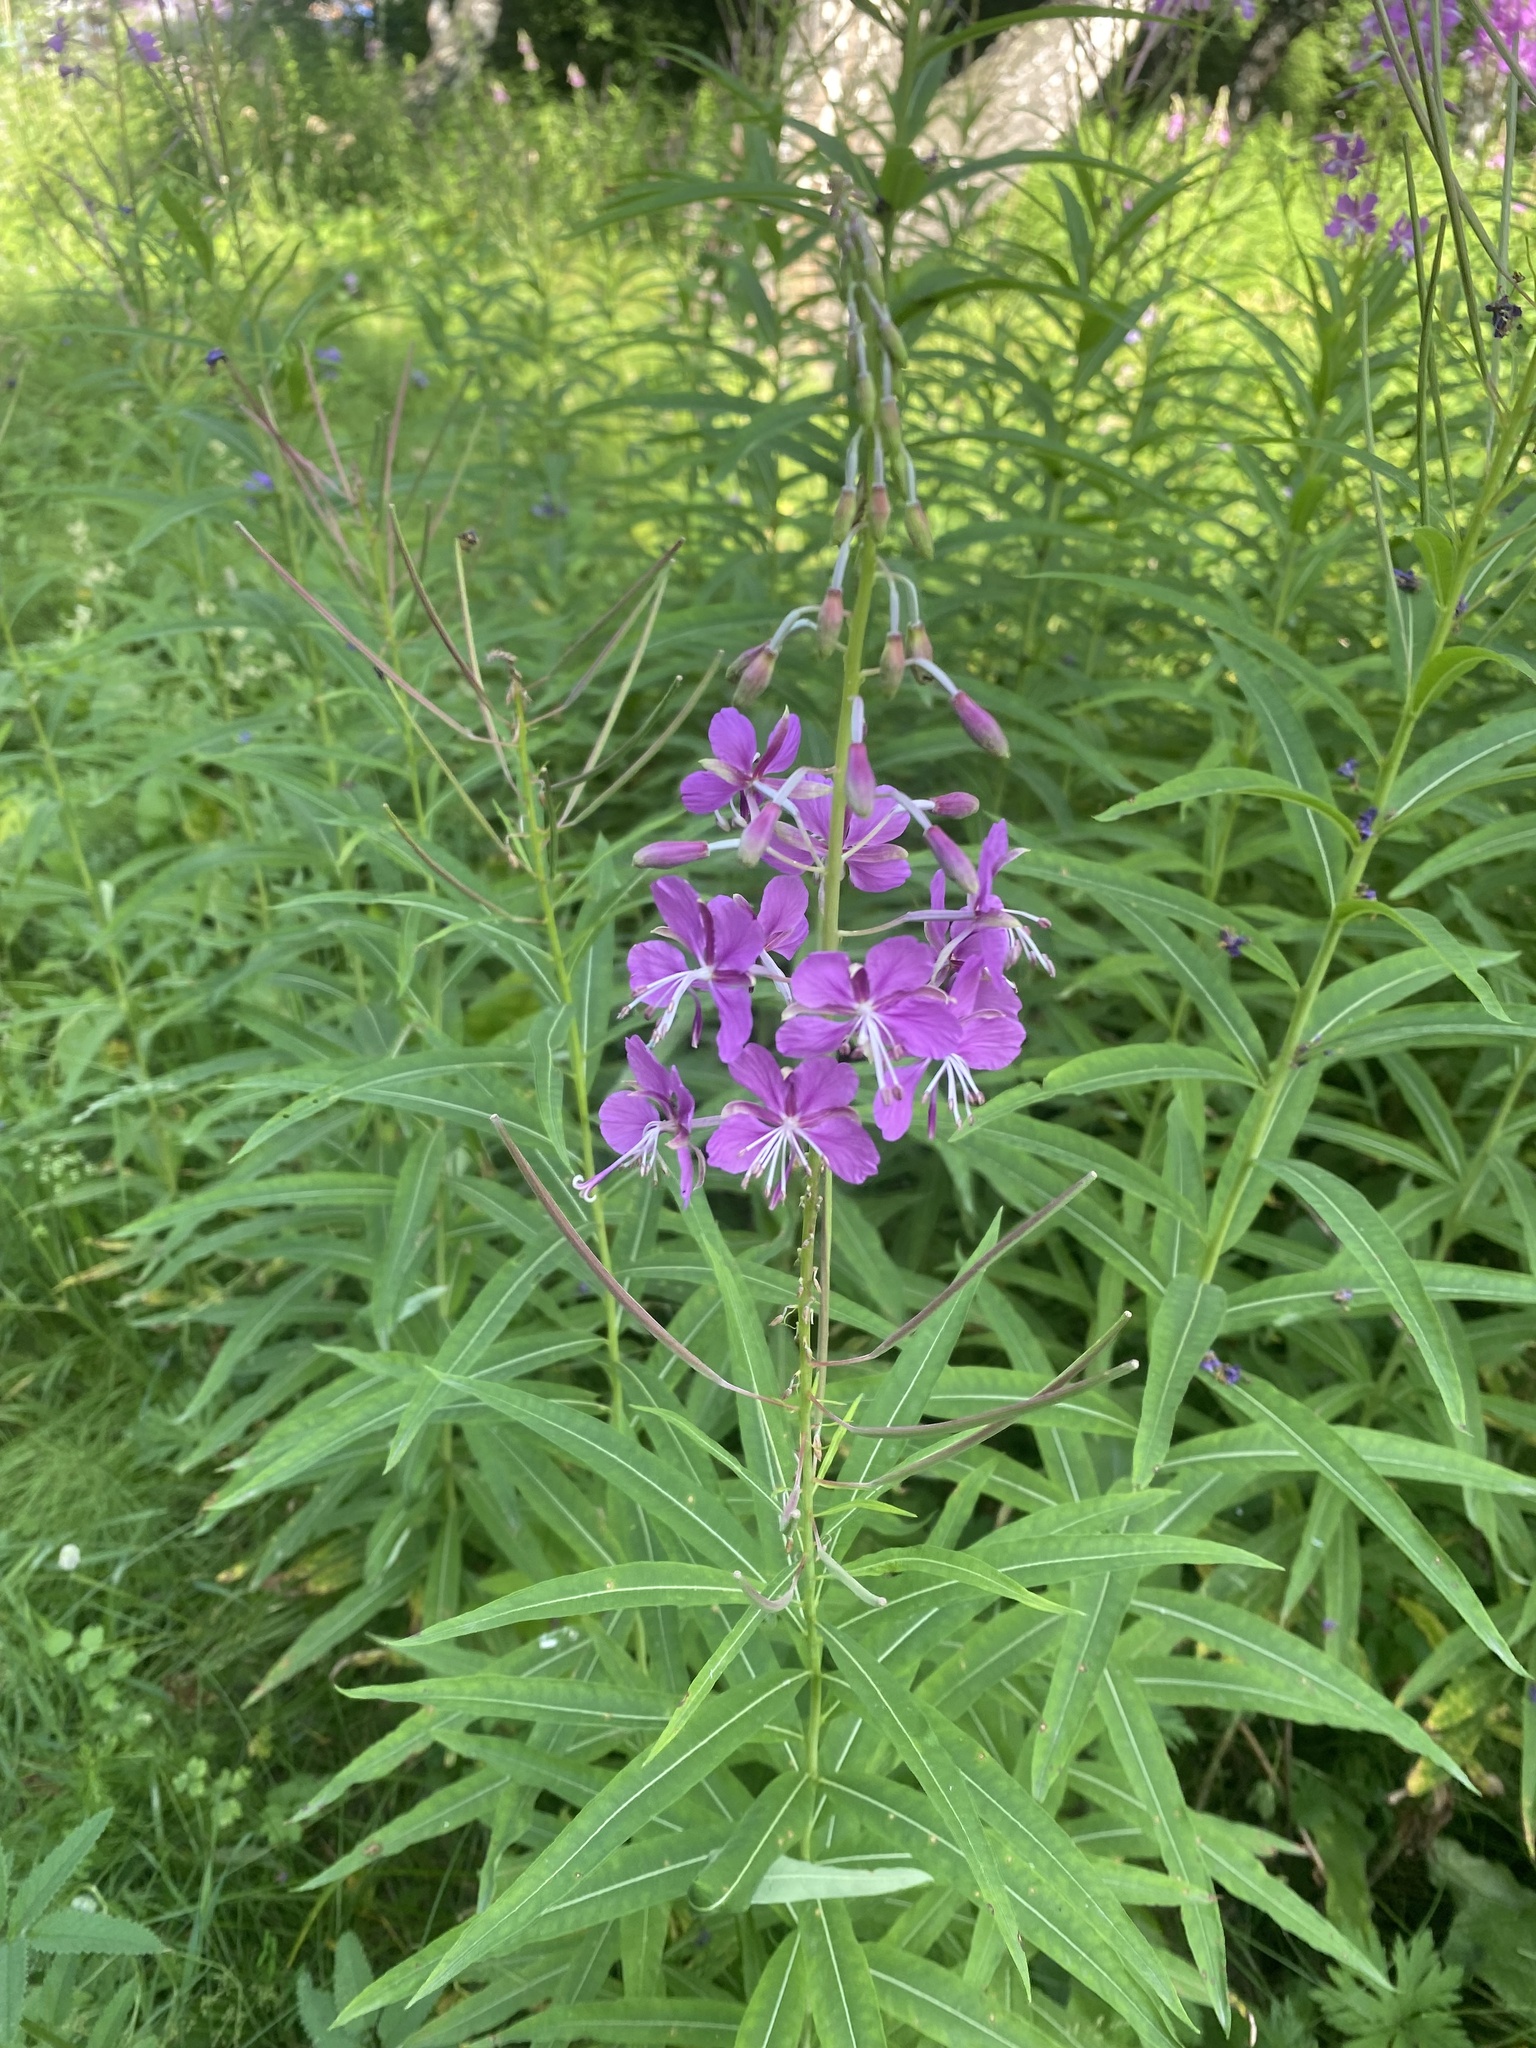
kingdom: Plantae
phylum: Tracheophyta
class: Magnoliopsida
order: Myrtales
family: Onagraceae
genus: Chamaenerion
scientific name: Chamaenerion angustifolium
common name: Fireweed
